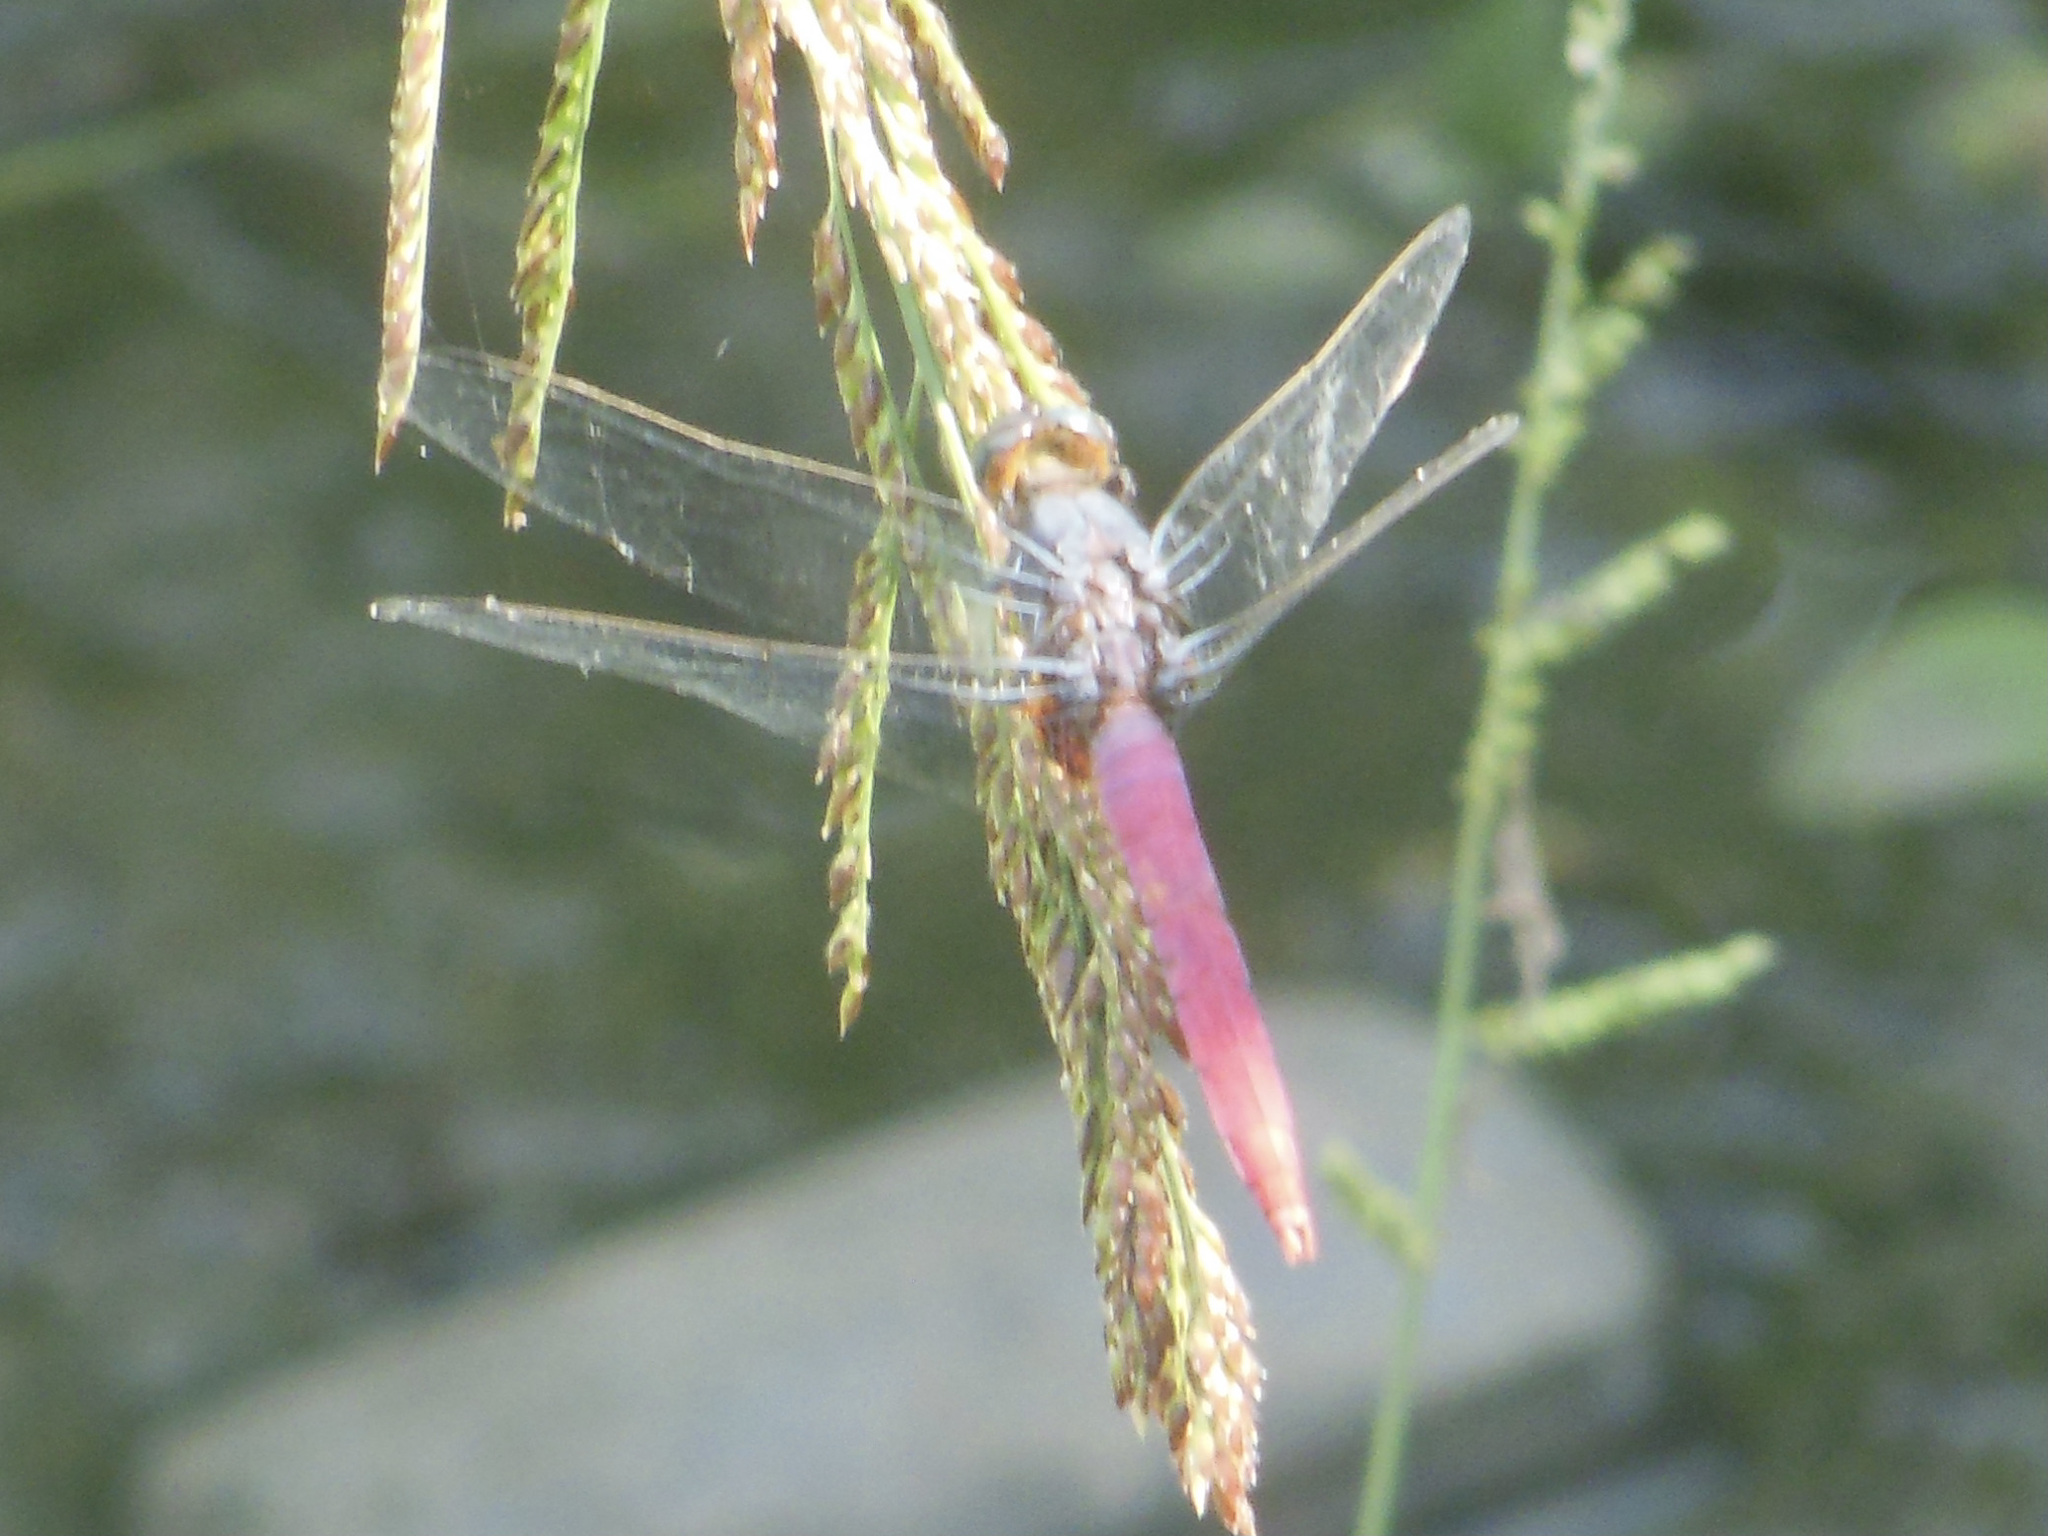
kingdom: Animalia
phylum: Arthropoda
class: Insecta
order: Odonata
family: Libellulidae
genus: Orthetrum
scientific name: Orthetrum pruinosum
